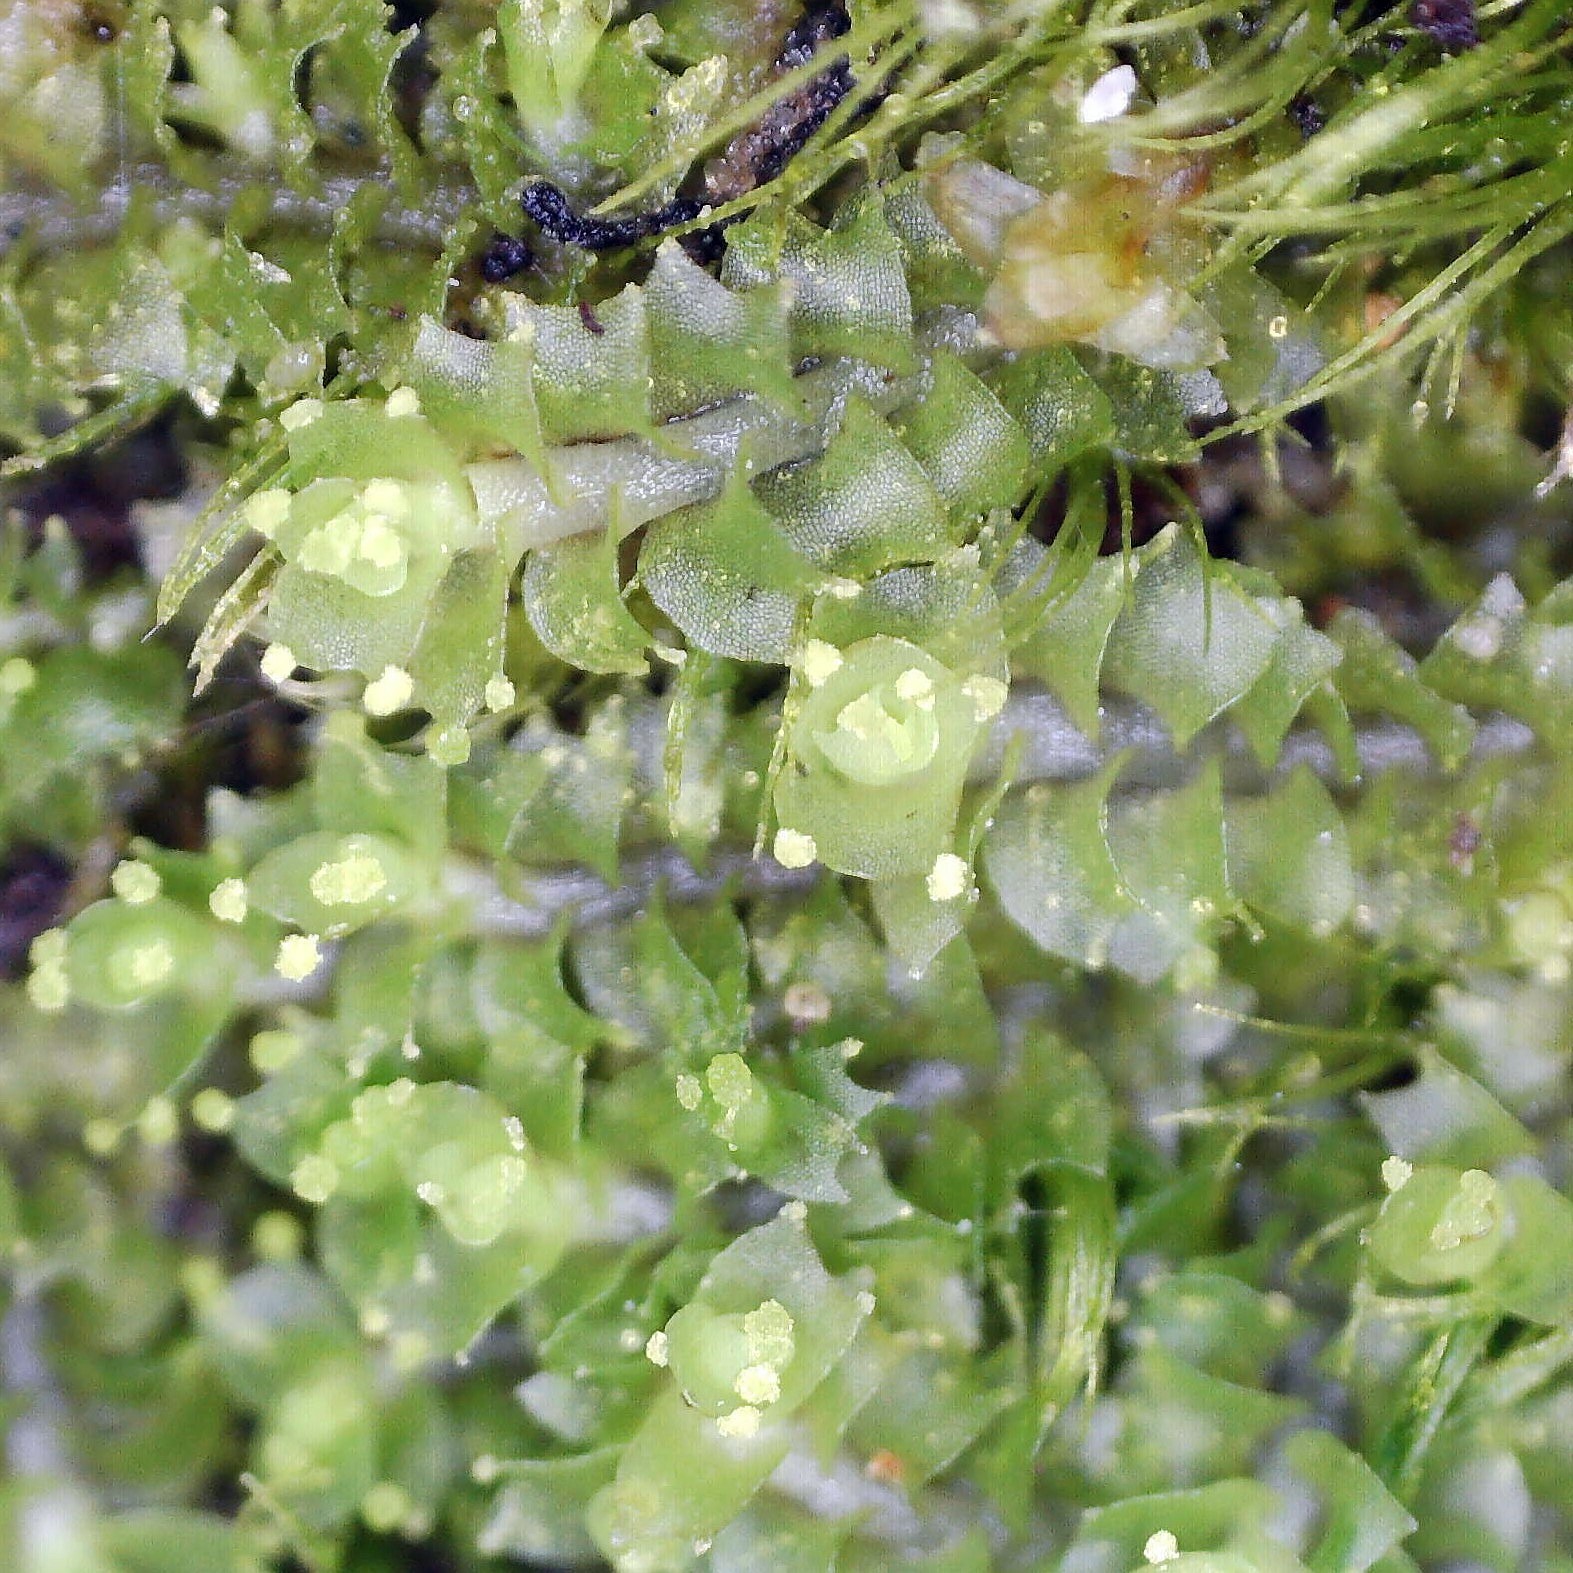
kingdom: Plantae
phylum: Marchantiophyta
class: Jungermanniopsida
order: Jungermanniales
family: Lophoziaceae
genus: Lophozia
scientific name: Lophozia ventricosa
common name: Tumid notchwort
